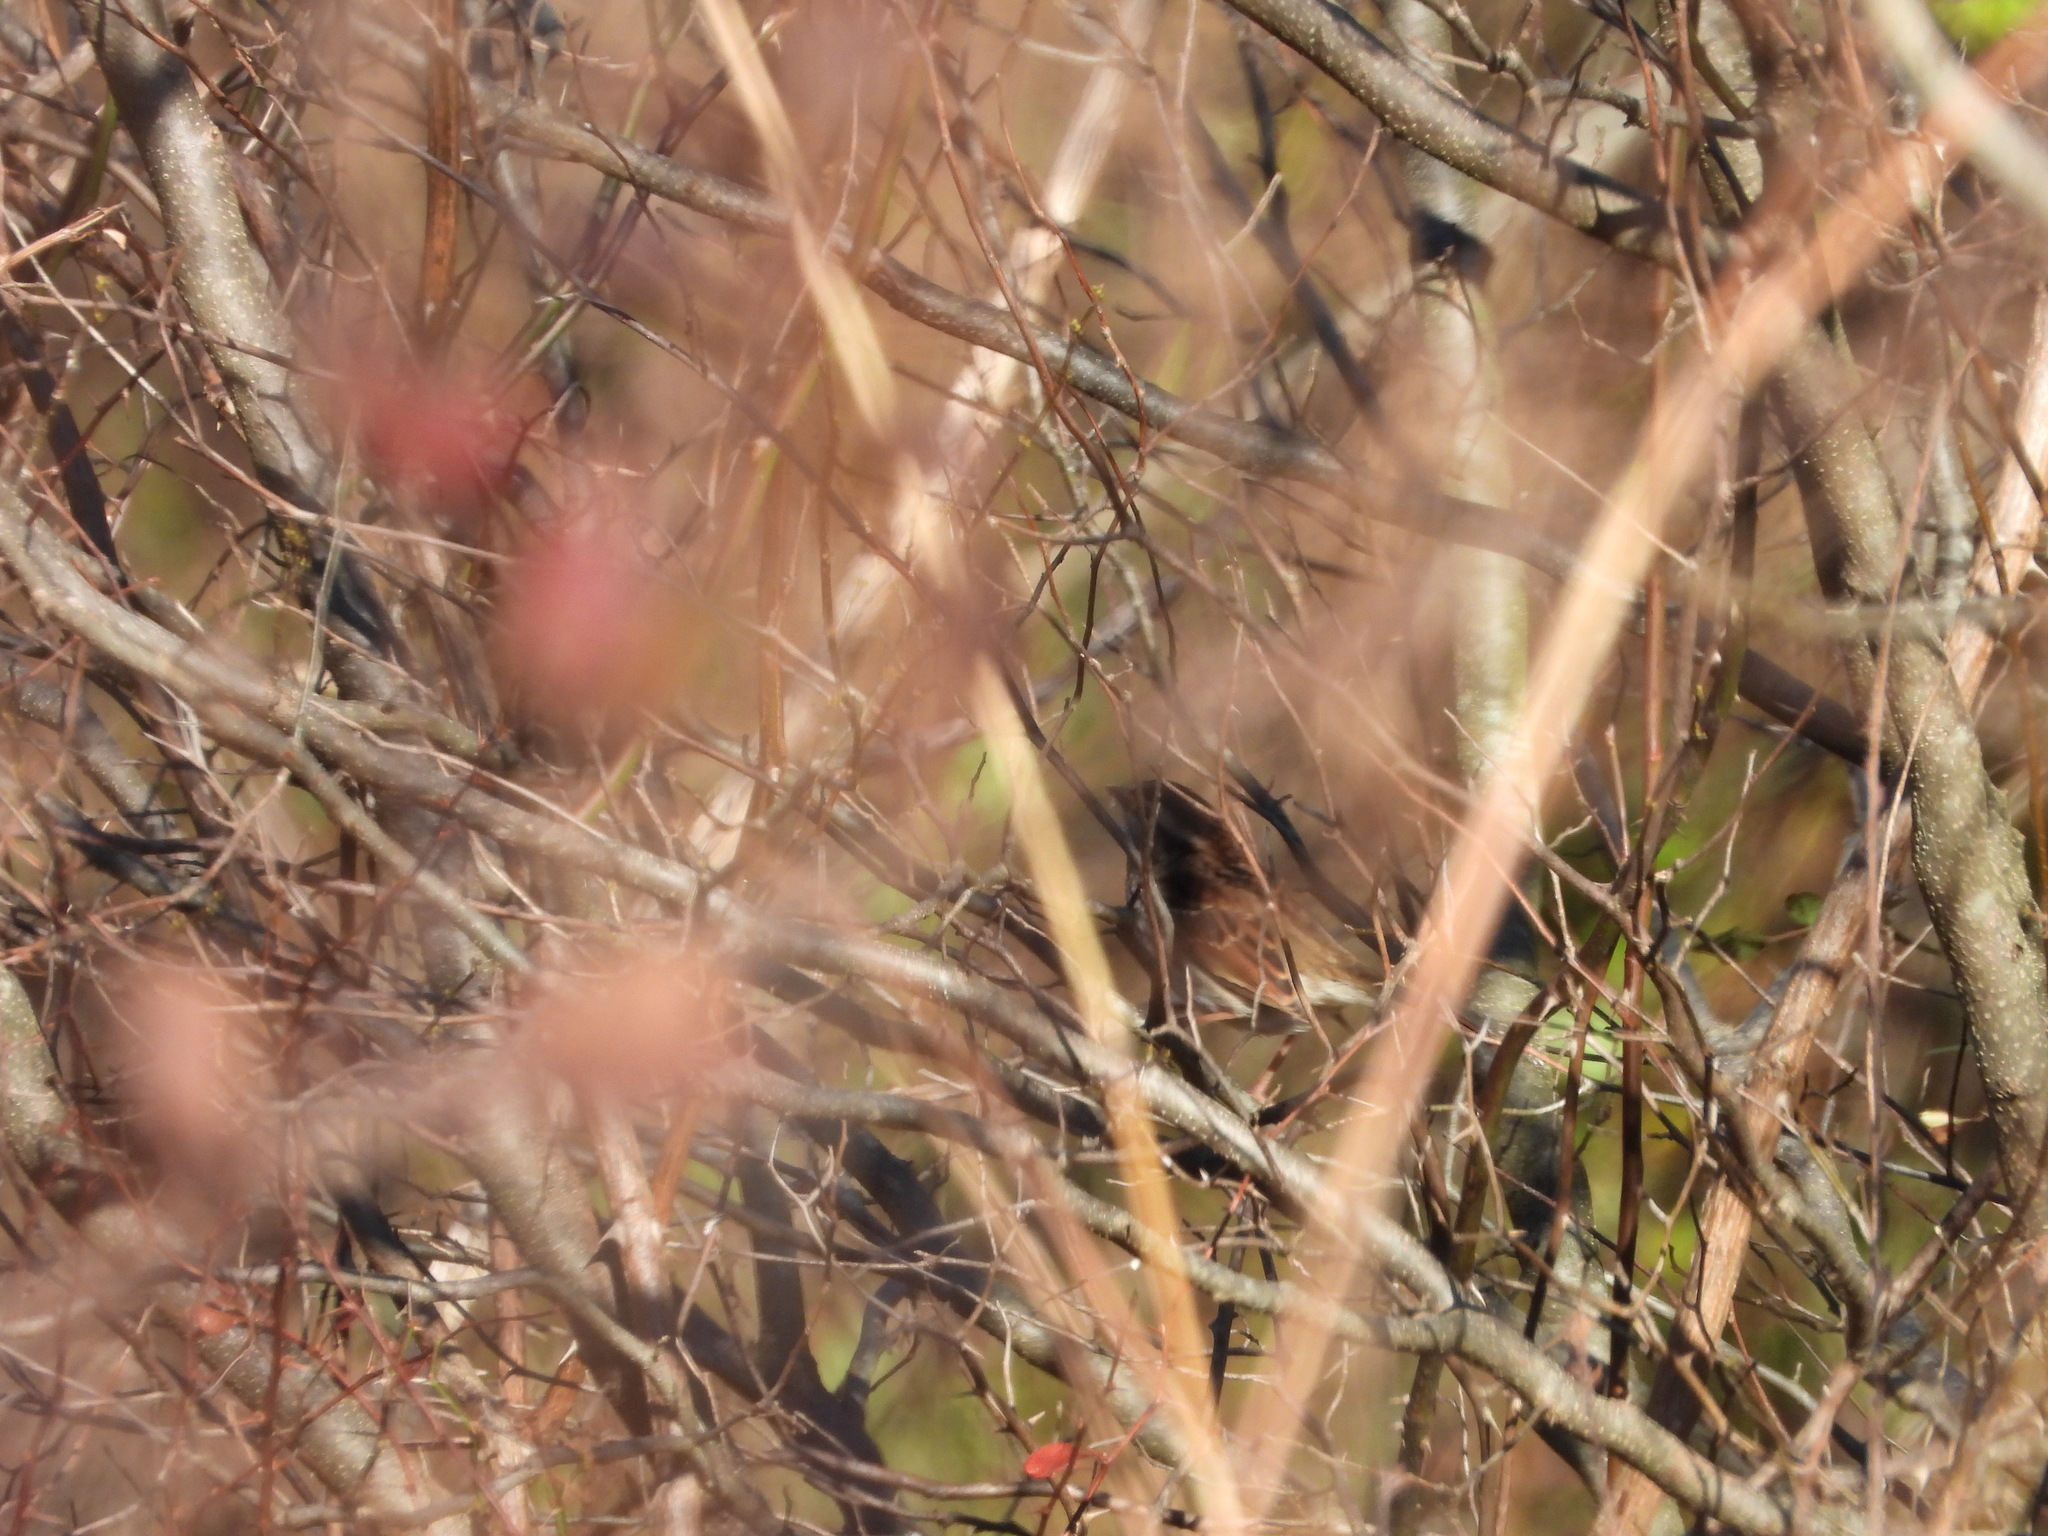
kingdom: Animalia
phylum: Chordata
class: Aves
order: Passeriformes
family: Passerellidae
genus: Zonotrichia
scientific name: Zonotrichia albicollis
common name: White-throated sparrow
